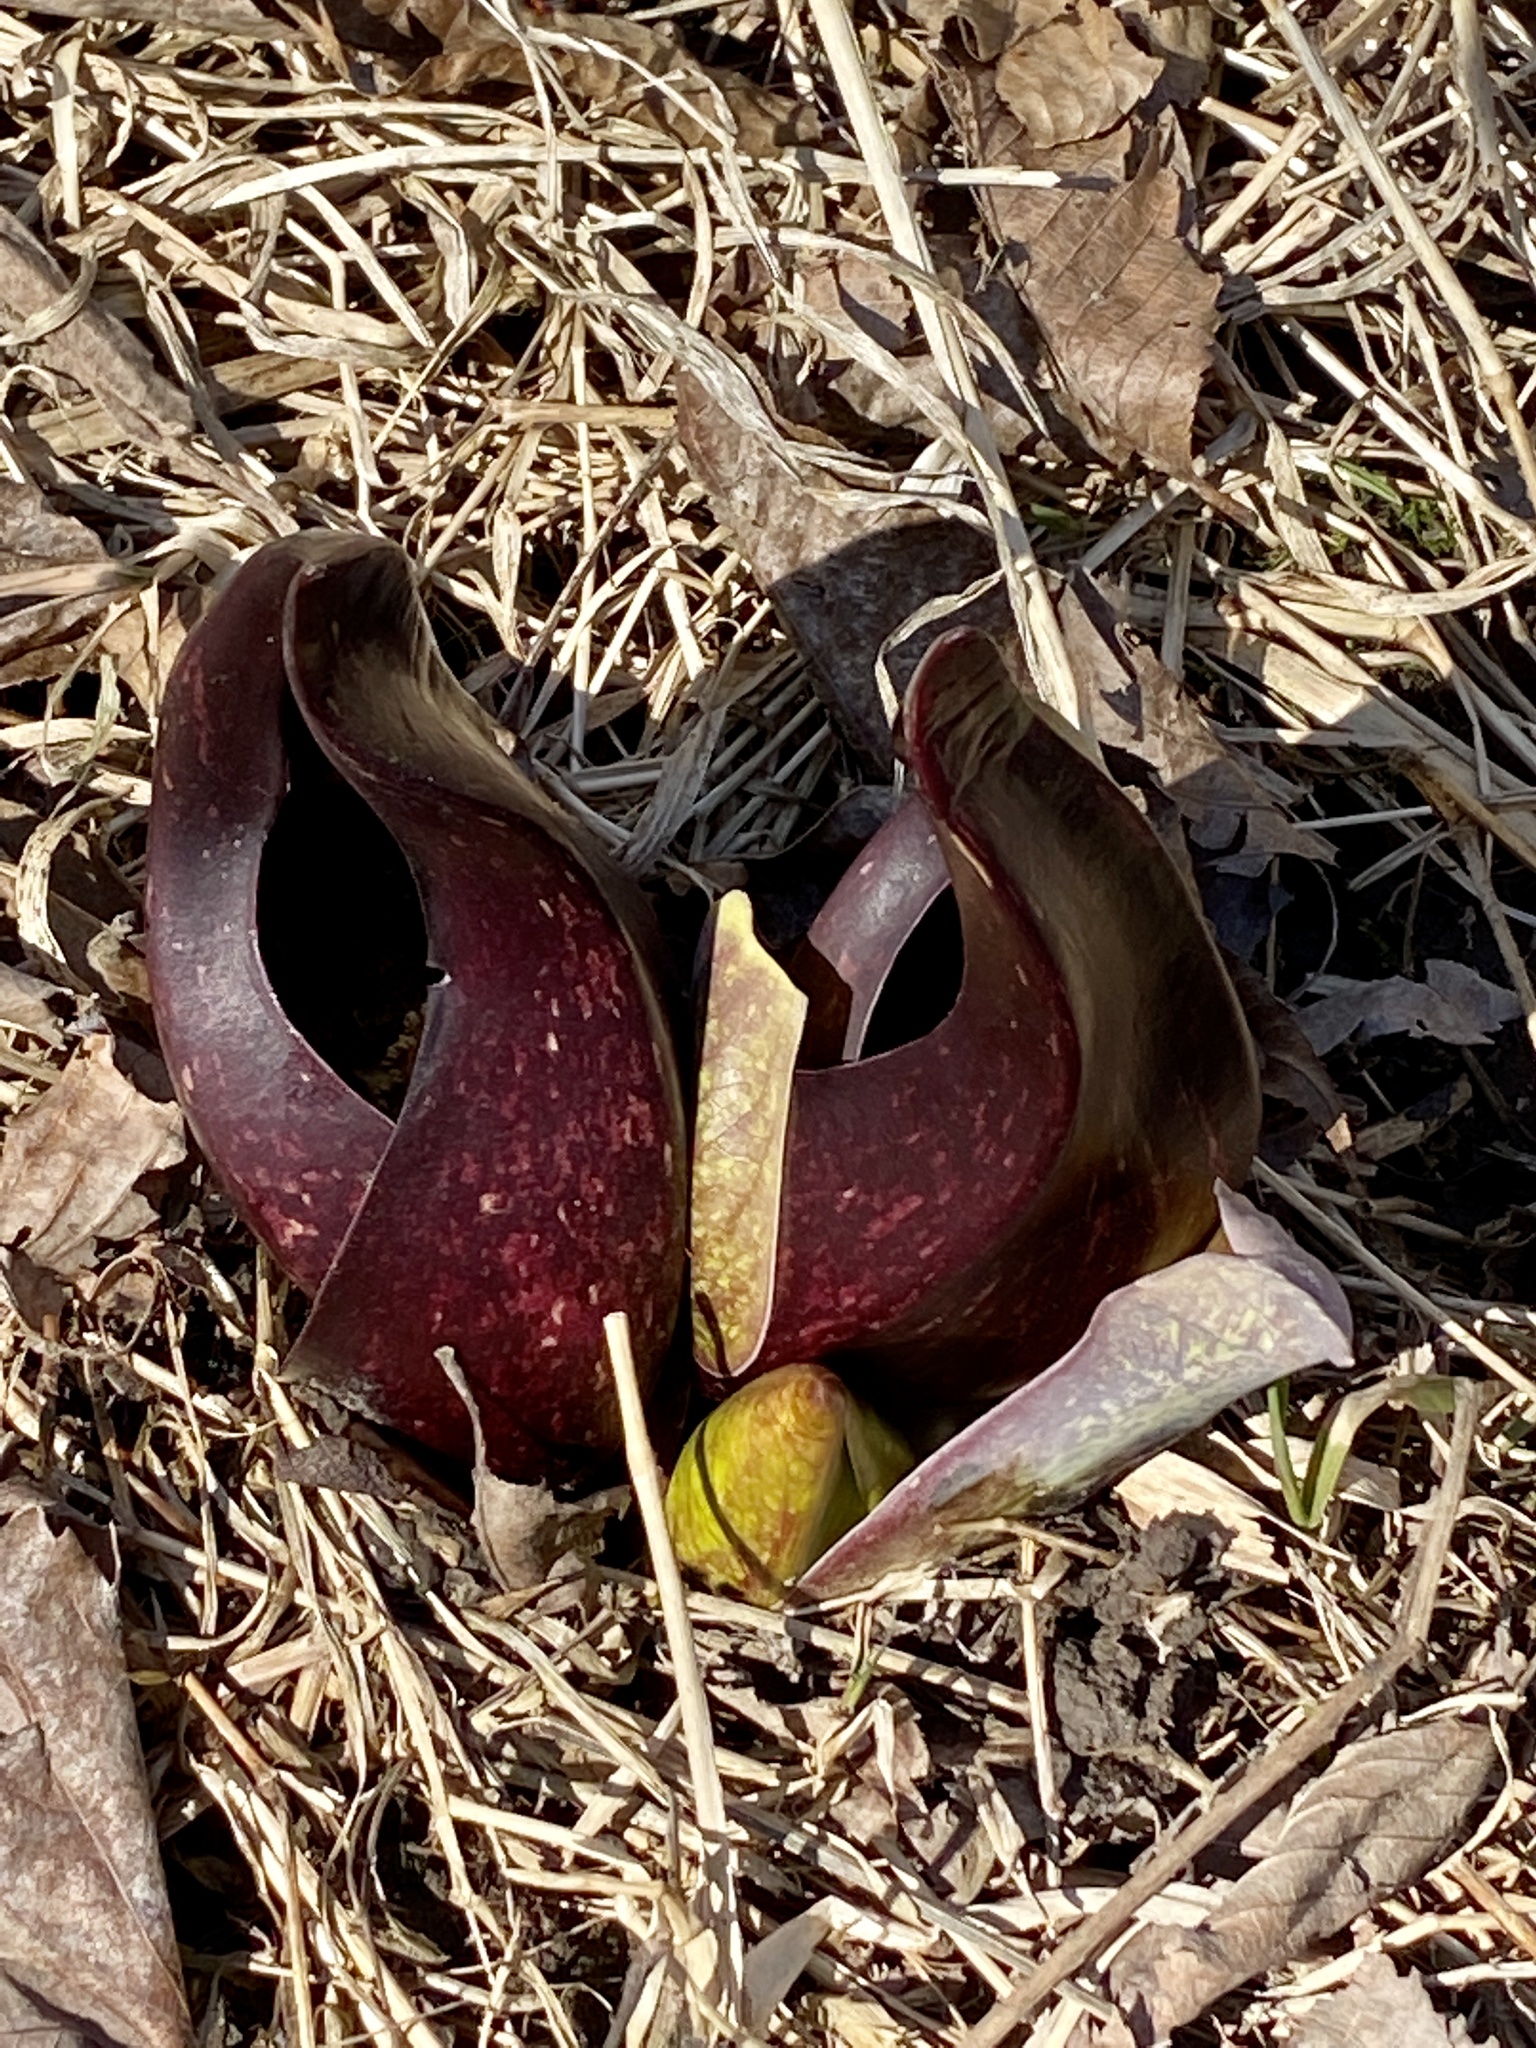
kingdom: Plantae
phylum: Tracheophyta
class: Liliopsida
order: Alismatales
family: Araceae
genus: Symplocarpus
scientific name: Symplocarpus foetidus
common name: Eastern skunk cabbage
